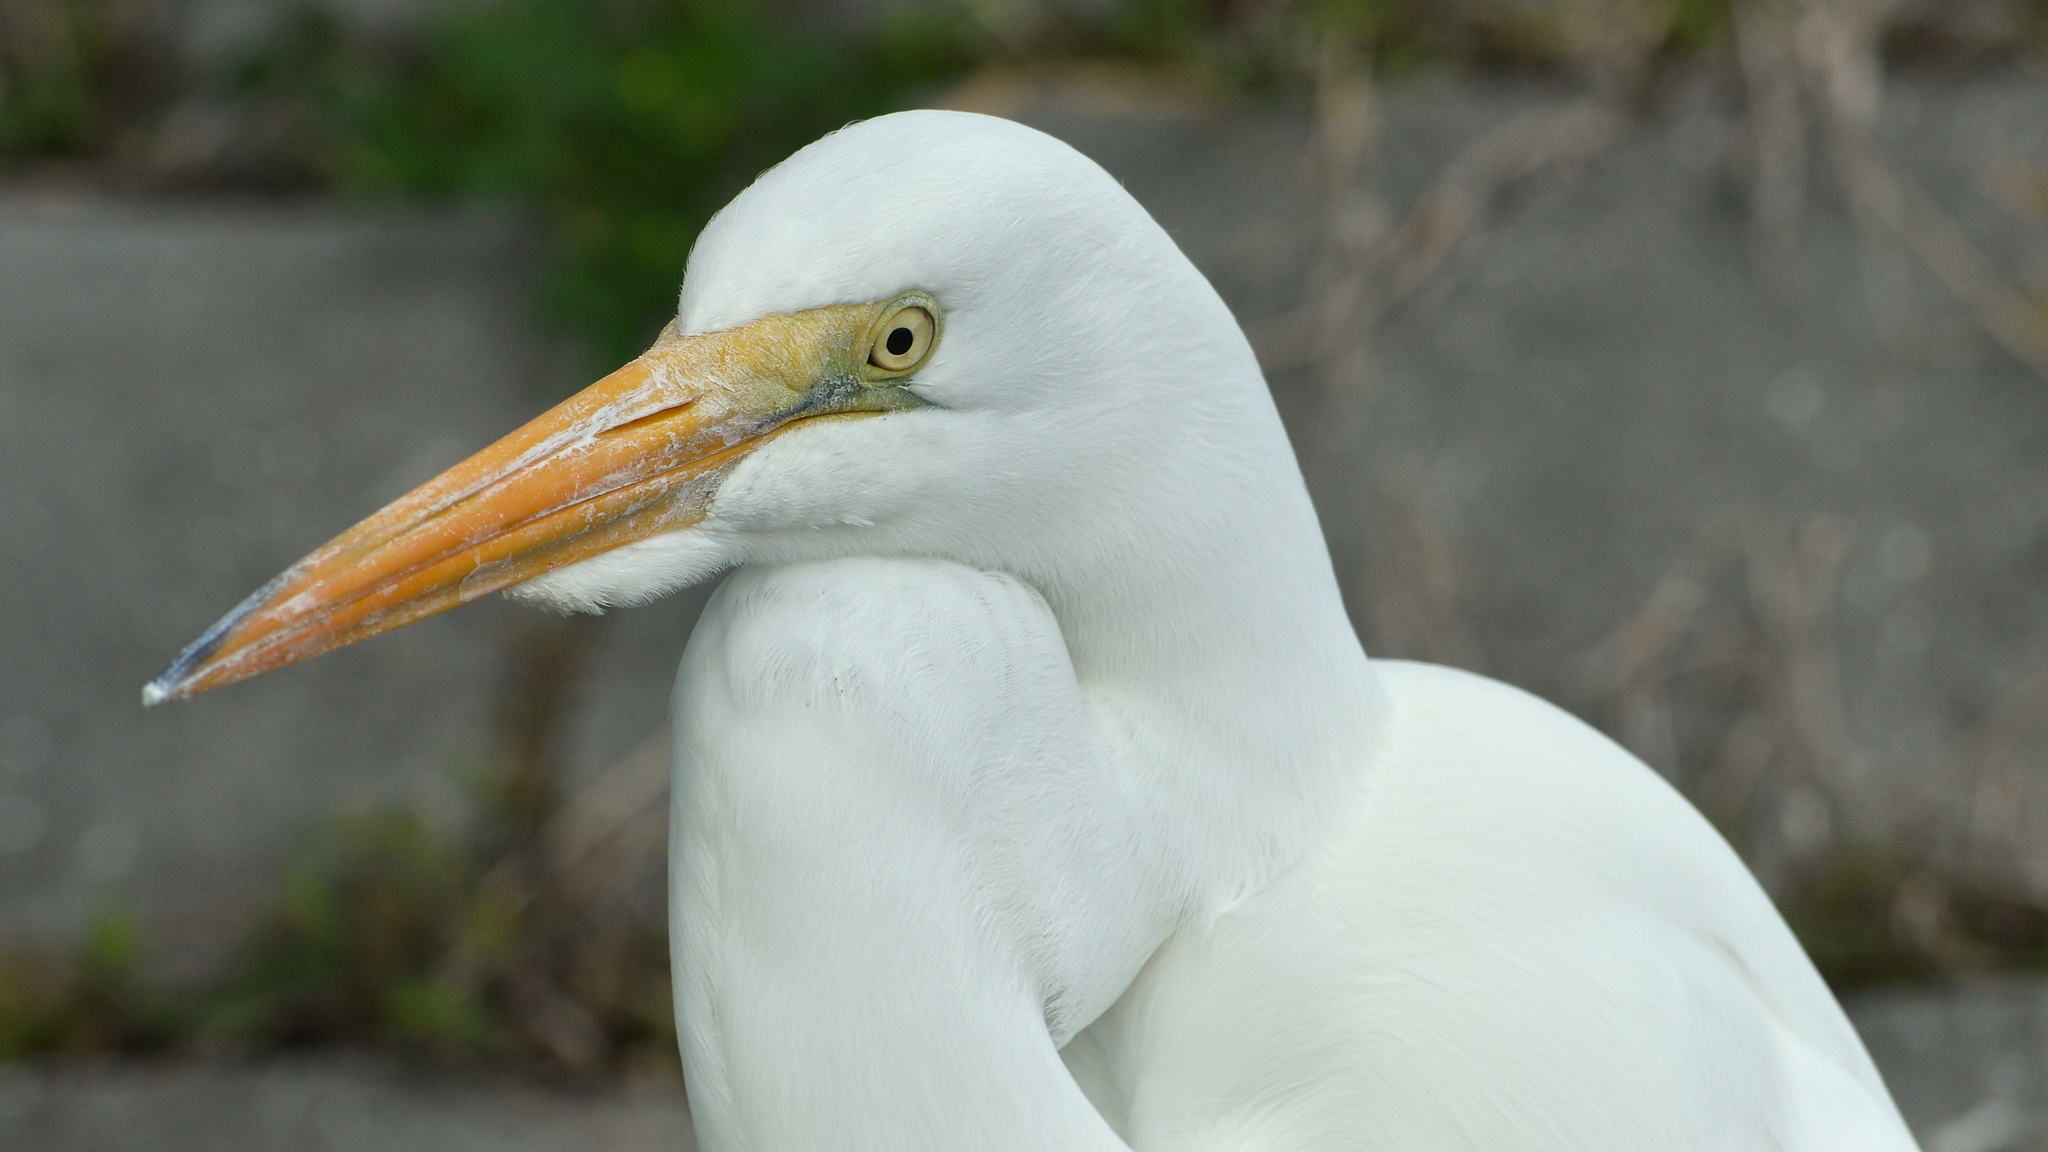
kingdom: Animalia
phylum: Chordata
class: Aves
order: Pelecaniformes
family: Ardeidae
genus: Ardea
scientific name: Ardea alba
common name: Great egret
